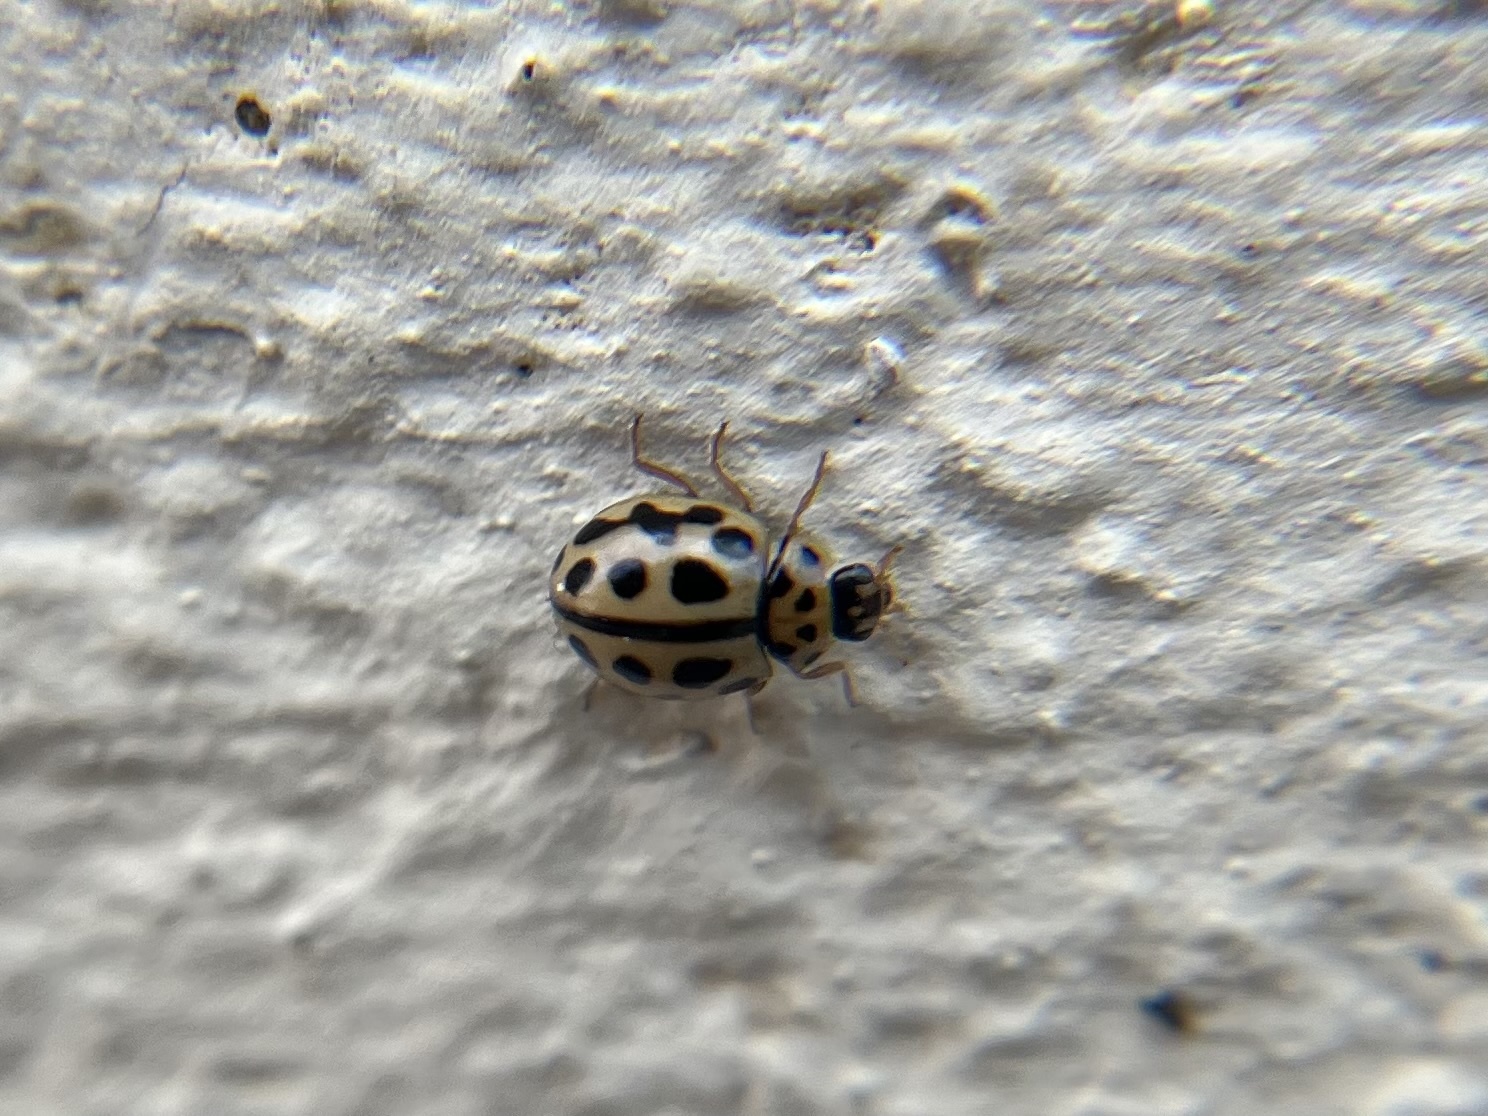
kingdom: Animalia
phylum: Arthropoda
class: Insecta
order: Coleoptera
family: Coccinellidae
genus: Tytthaspis
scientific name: Tytthaspis sedecimpunctata
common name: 16-spot ladybird
